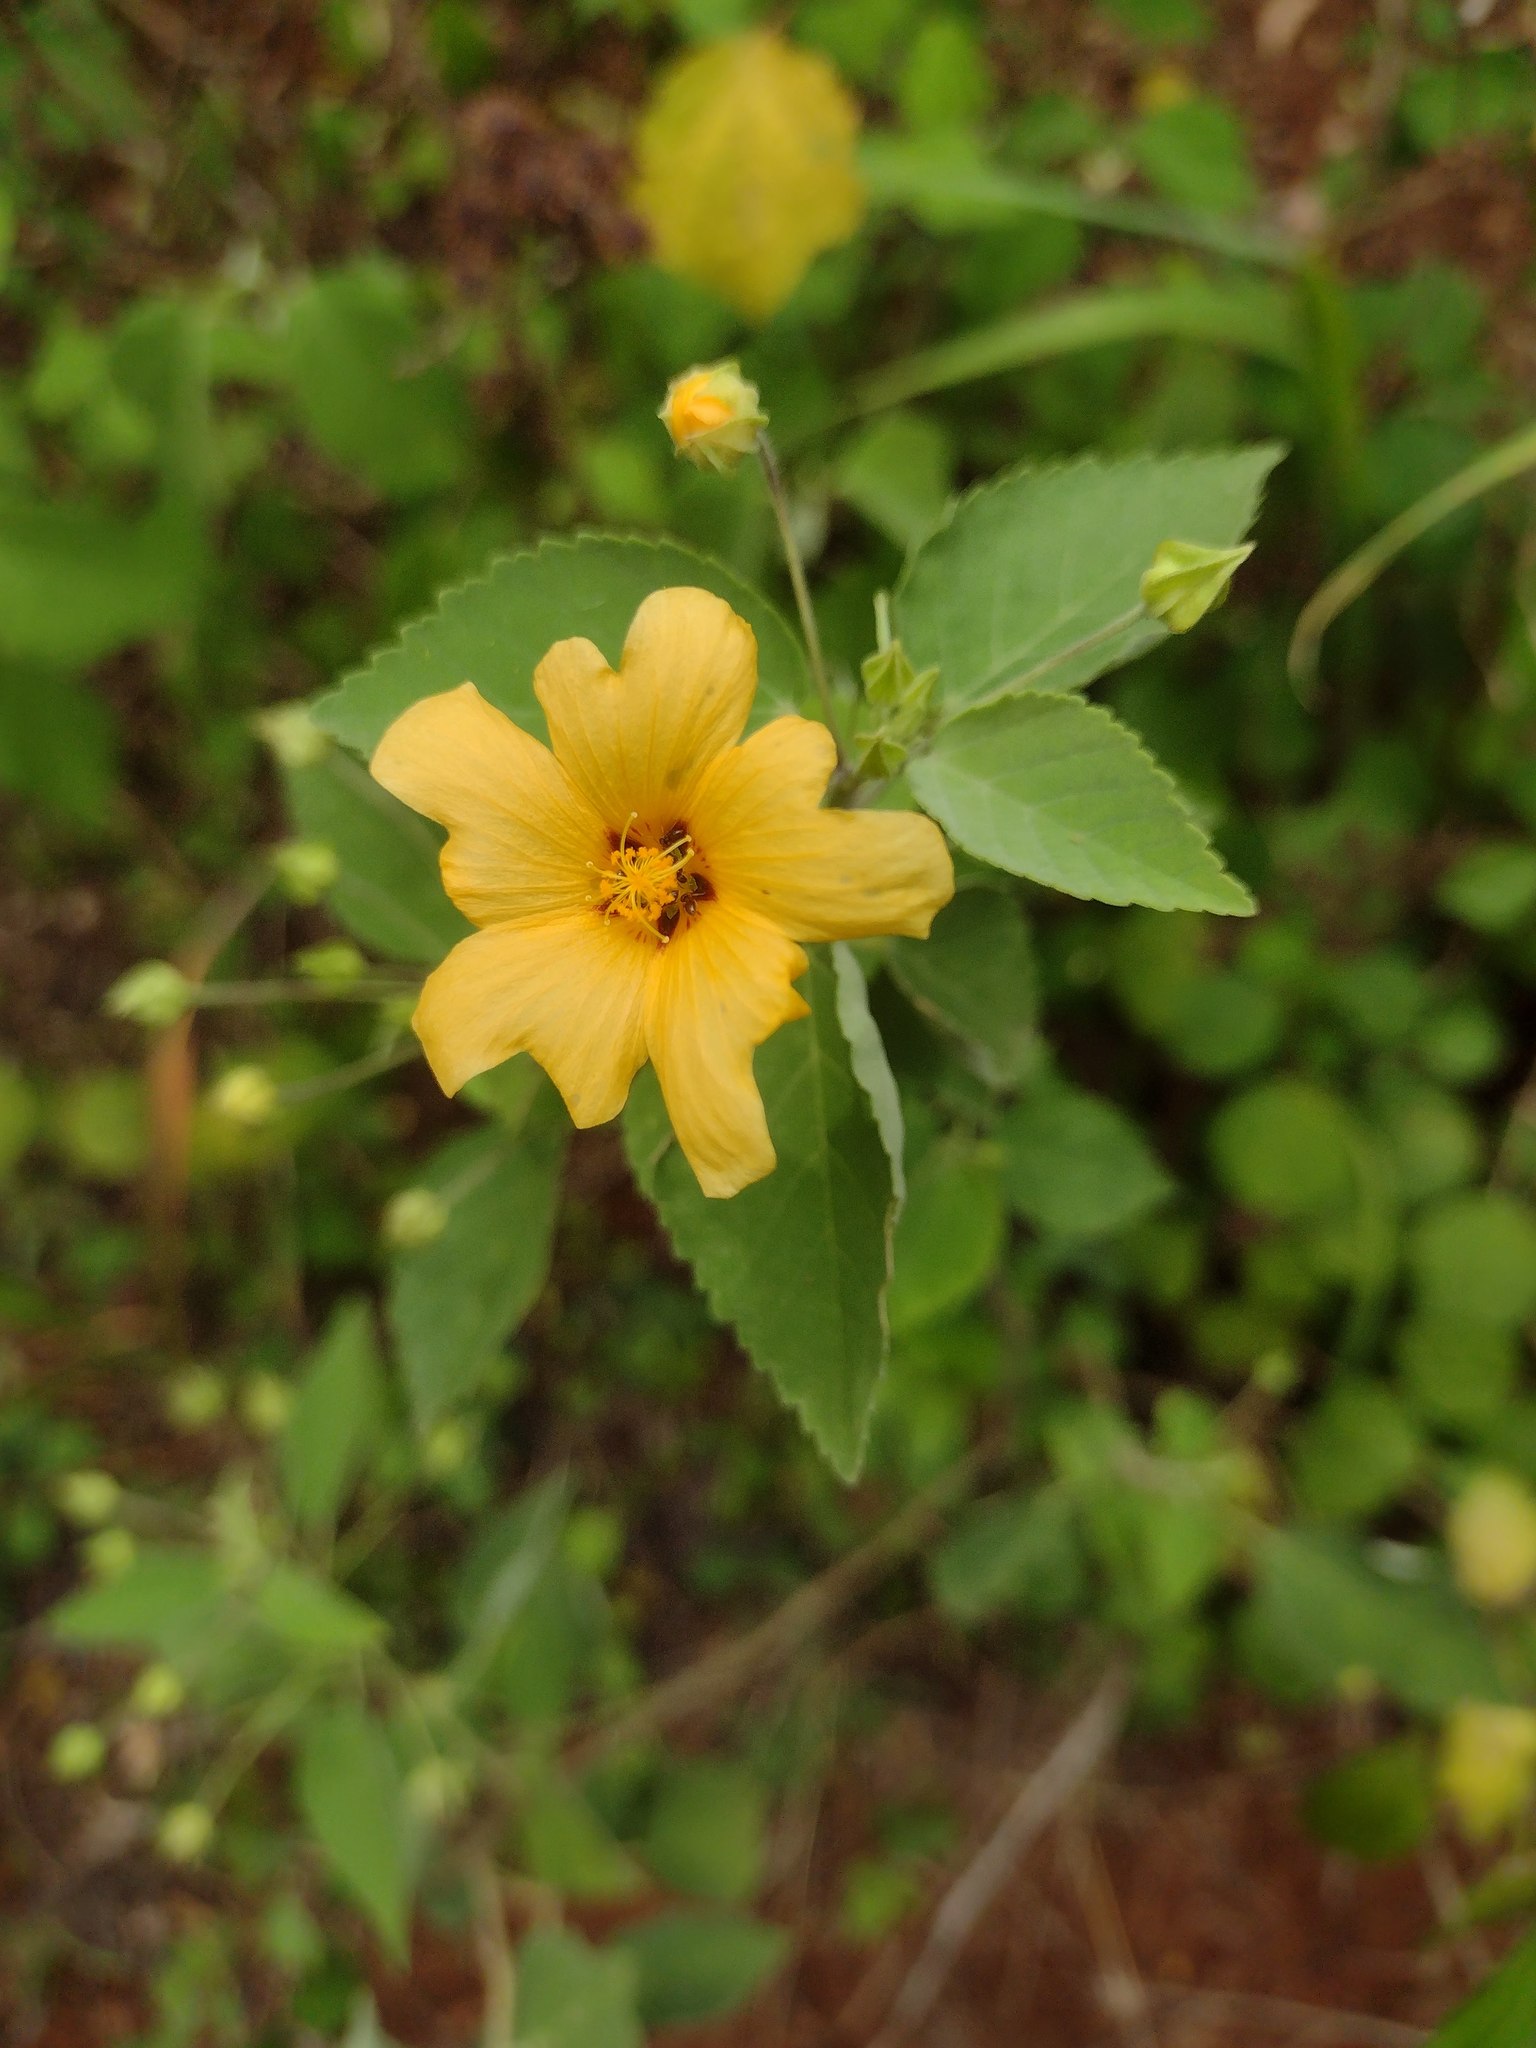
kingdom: Plantae
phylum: Tracheophyta
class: Magnoliopsida
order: Malvales
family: Malvaceae
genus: Sida
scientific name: Sida fallax
